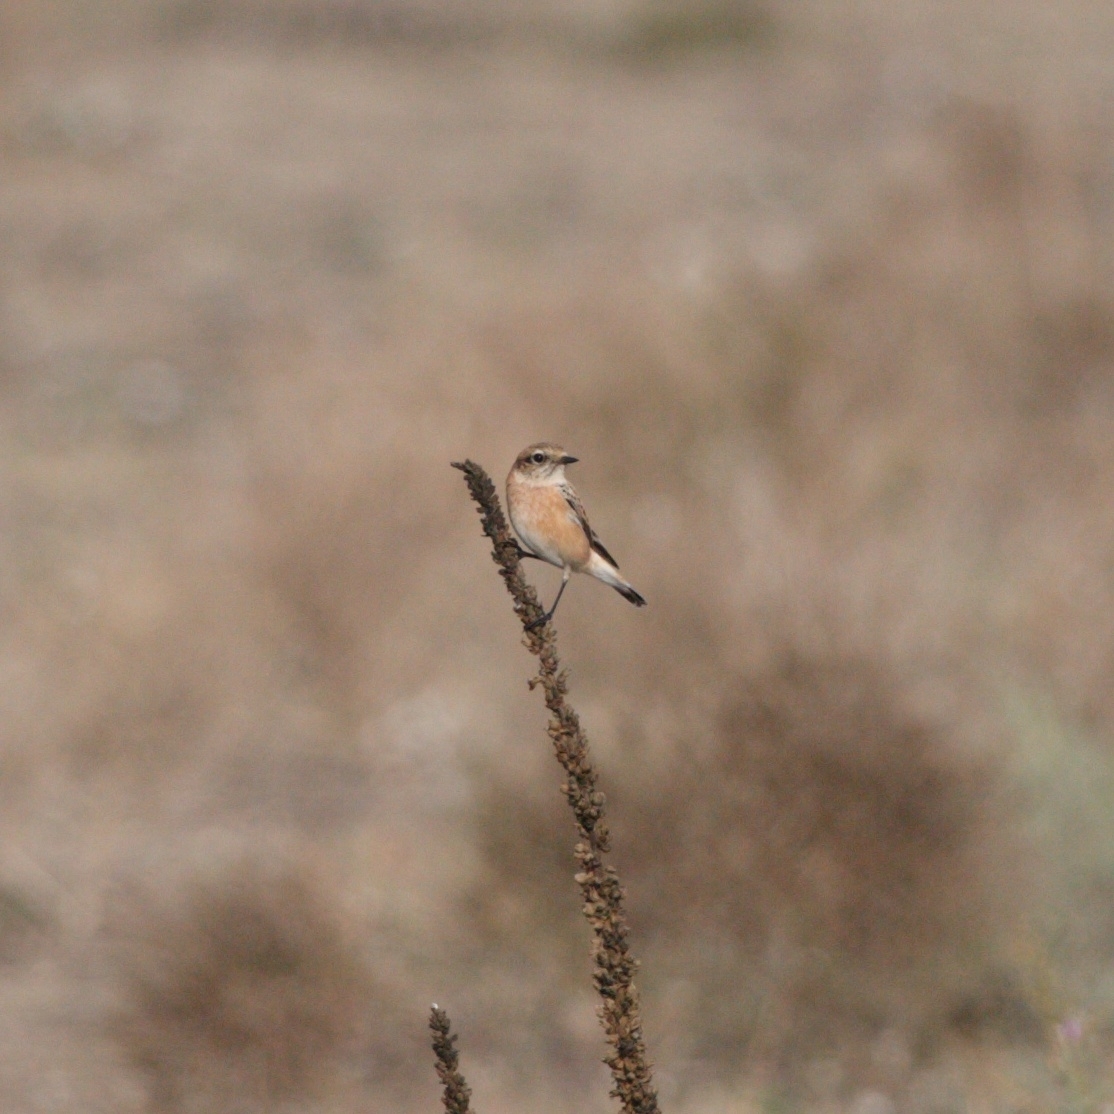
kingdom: Animalia
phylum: Chordata
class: Aves
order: Passeriformes
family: Muscicapidae
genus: Saxicola
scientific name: Saxicola maurus
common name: Siberian stonechat
